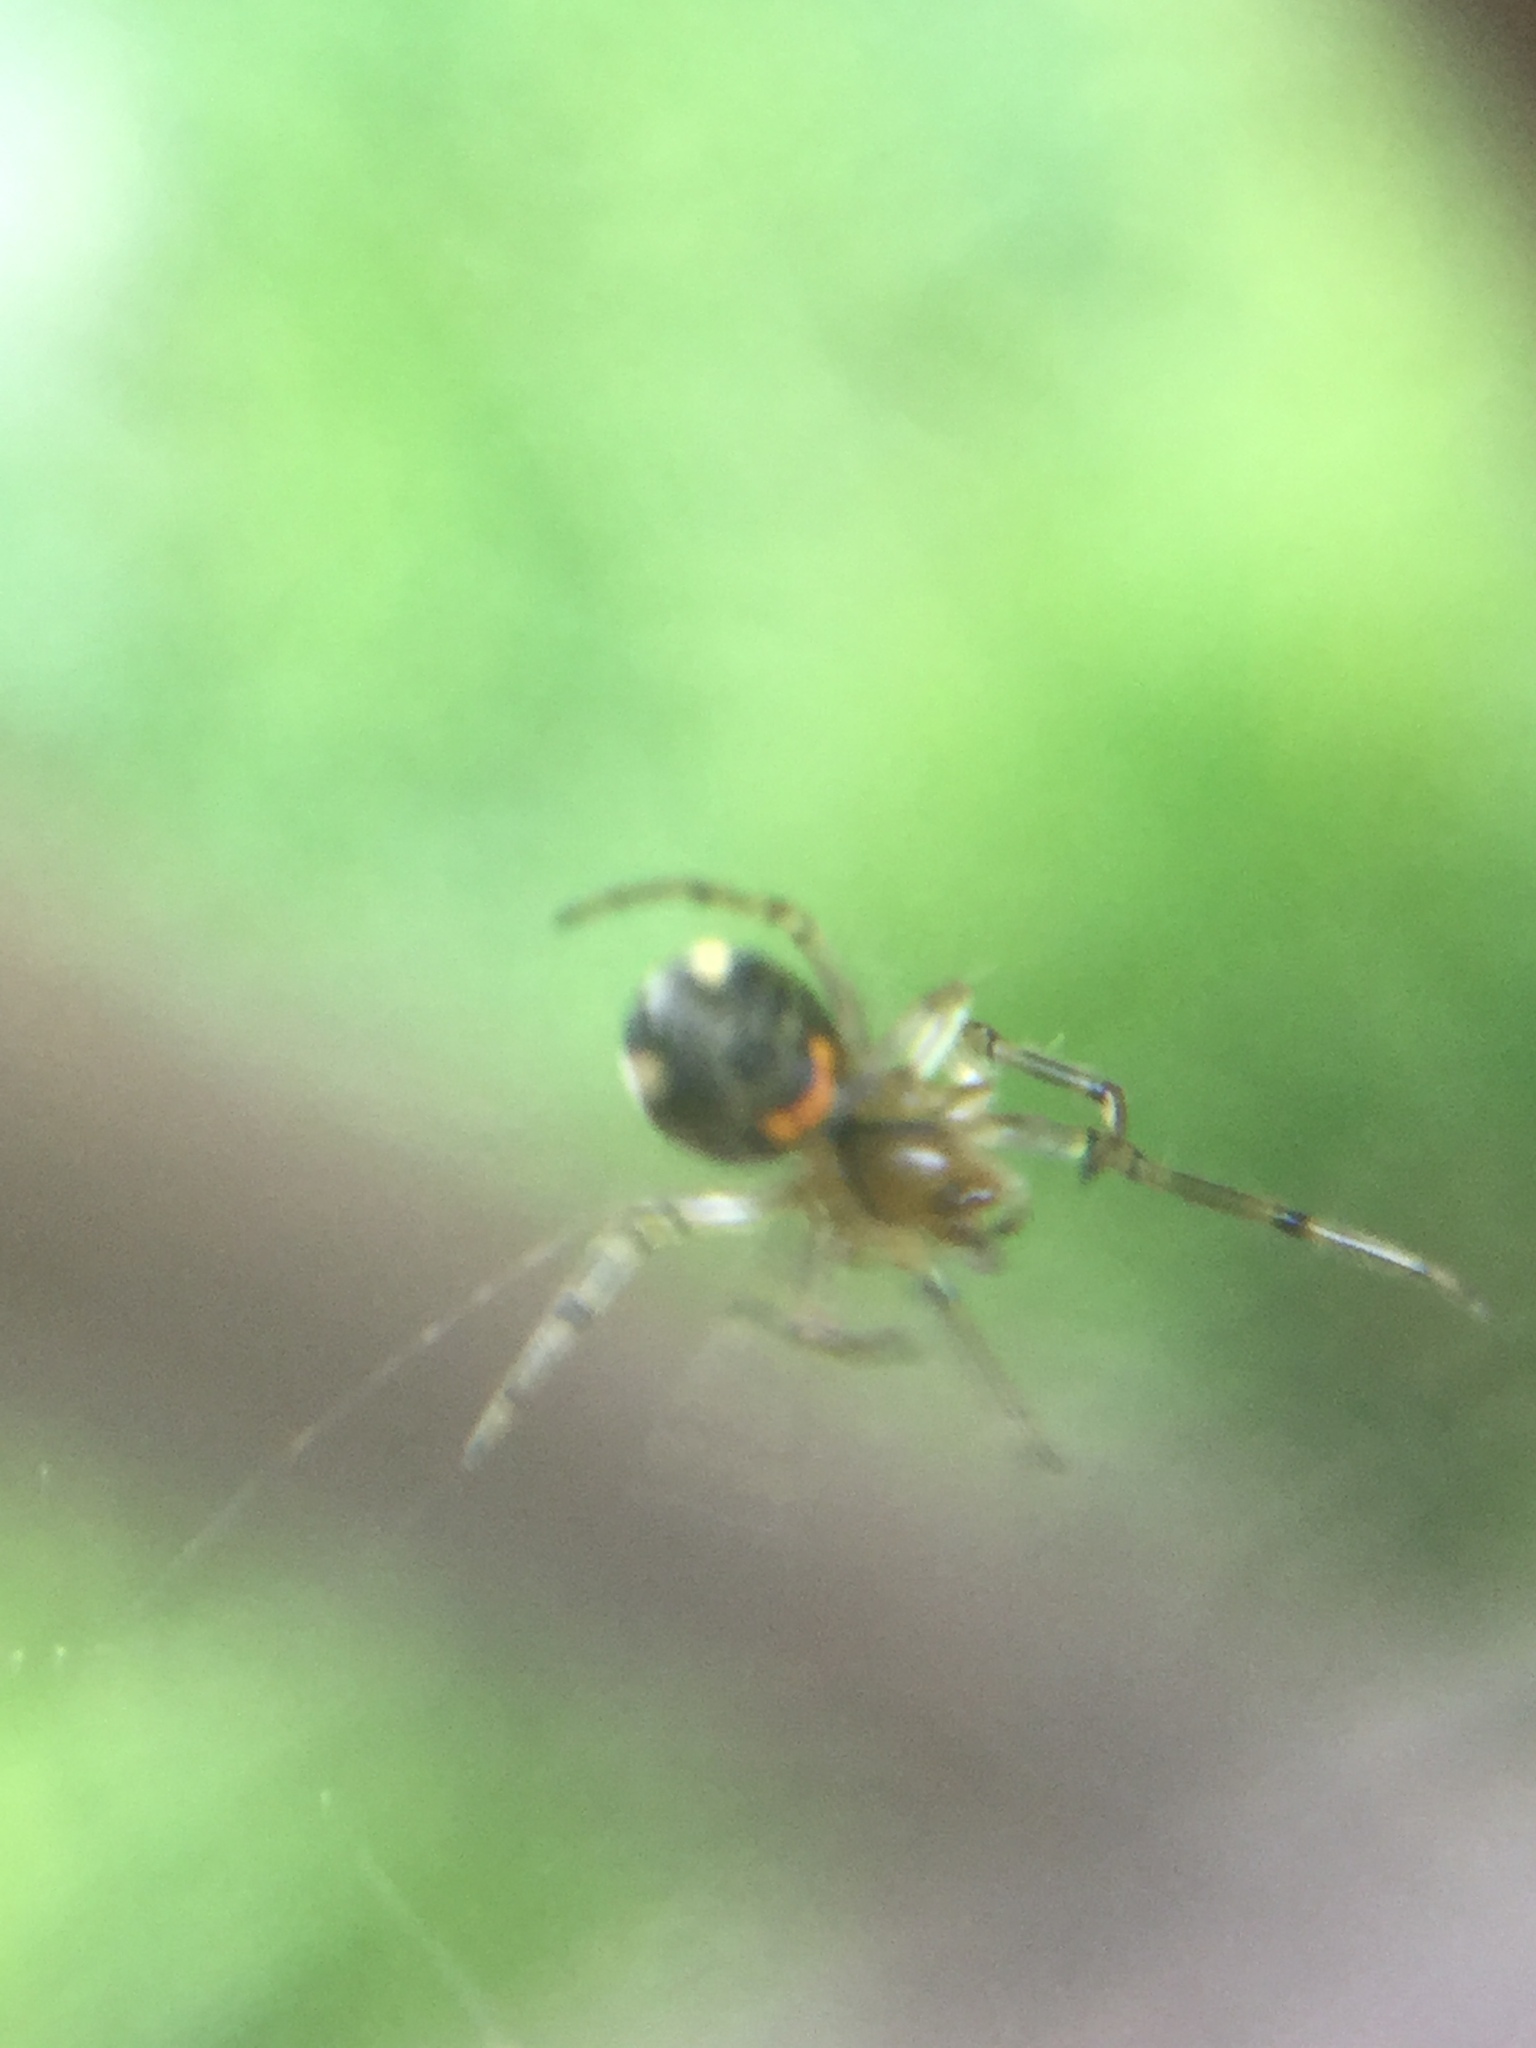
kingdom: Animalia
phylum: Arthropoda
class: Arachnida
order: Araneae
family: Tetragnathidae
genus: Leucauge
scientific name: Leucauge venusta
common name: Longjawed orb weavers
